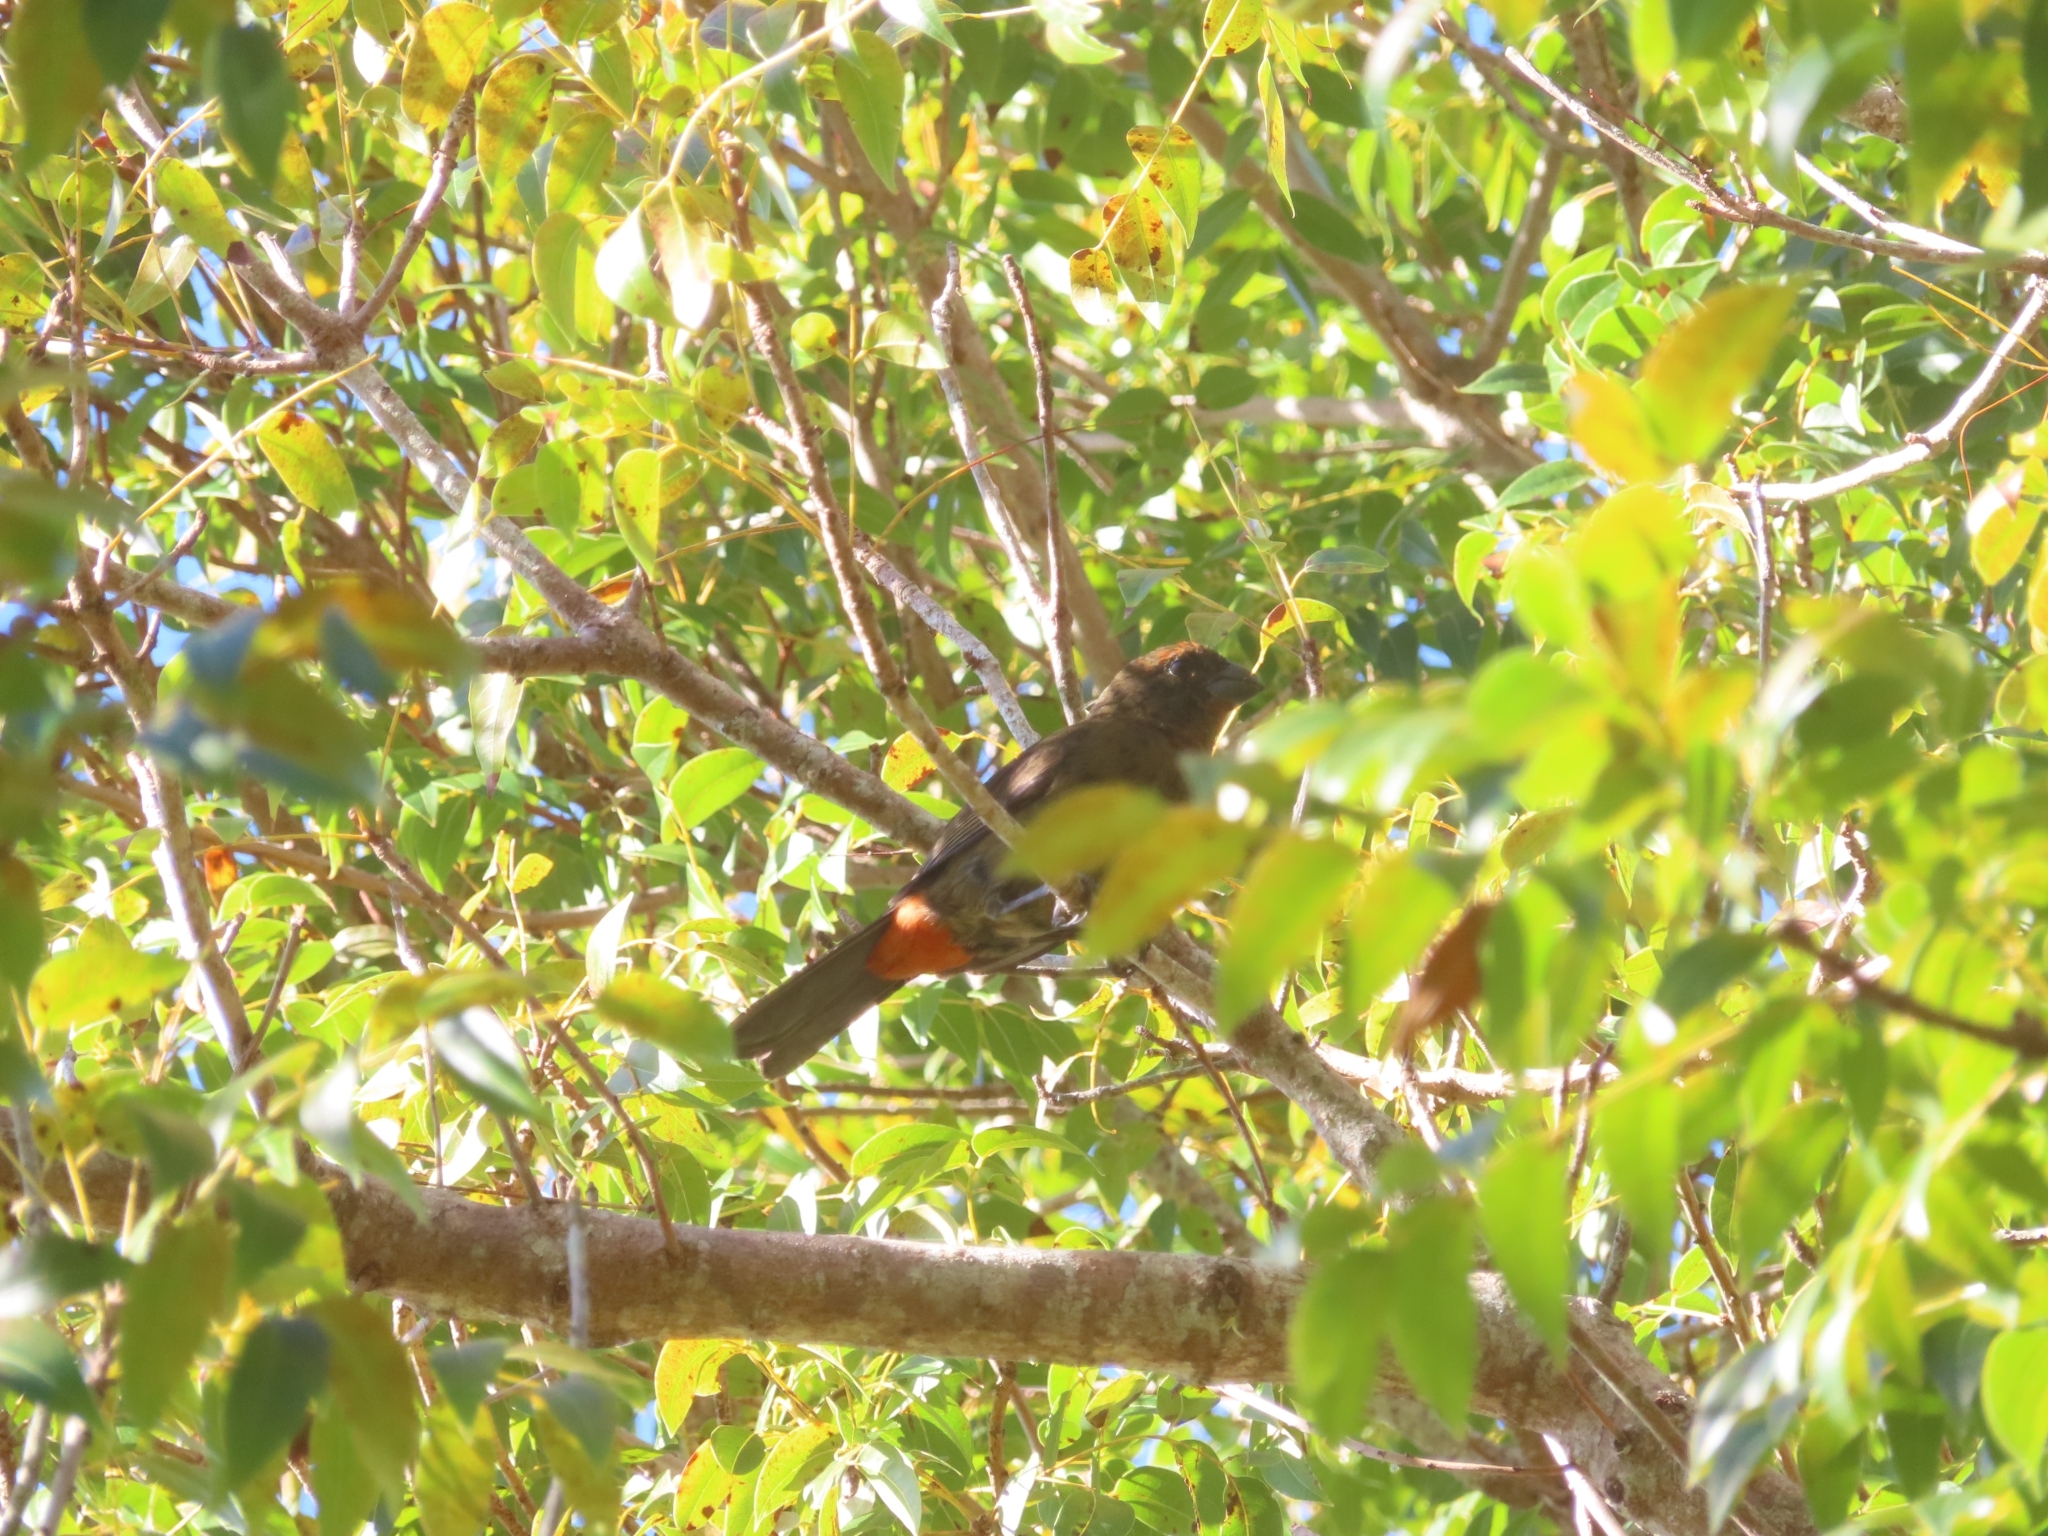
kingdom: Animalia
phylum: Chordata
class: Aves
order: Passeriformes
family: Thraupidae
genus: Melopyrrha
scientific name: Melopyrrha portoricensis
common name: Puerto rican bullfinch
